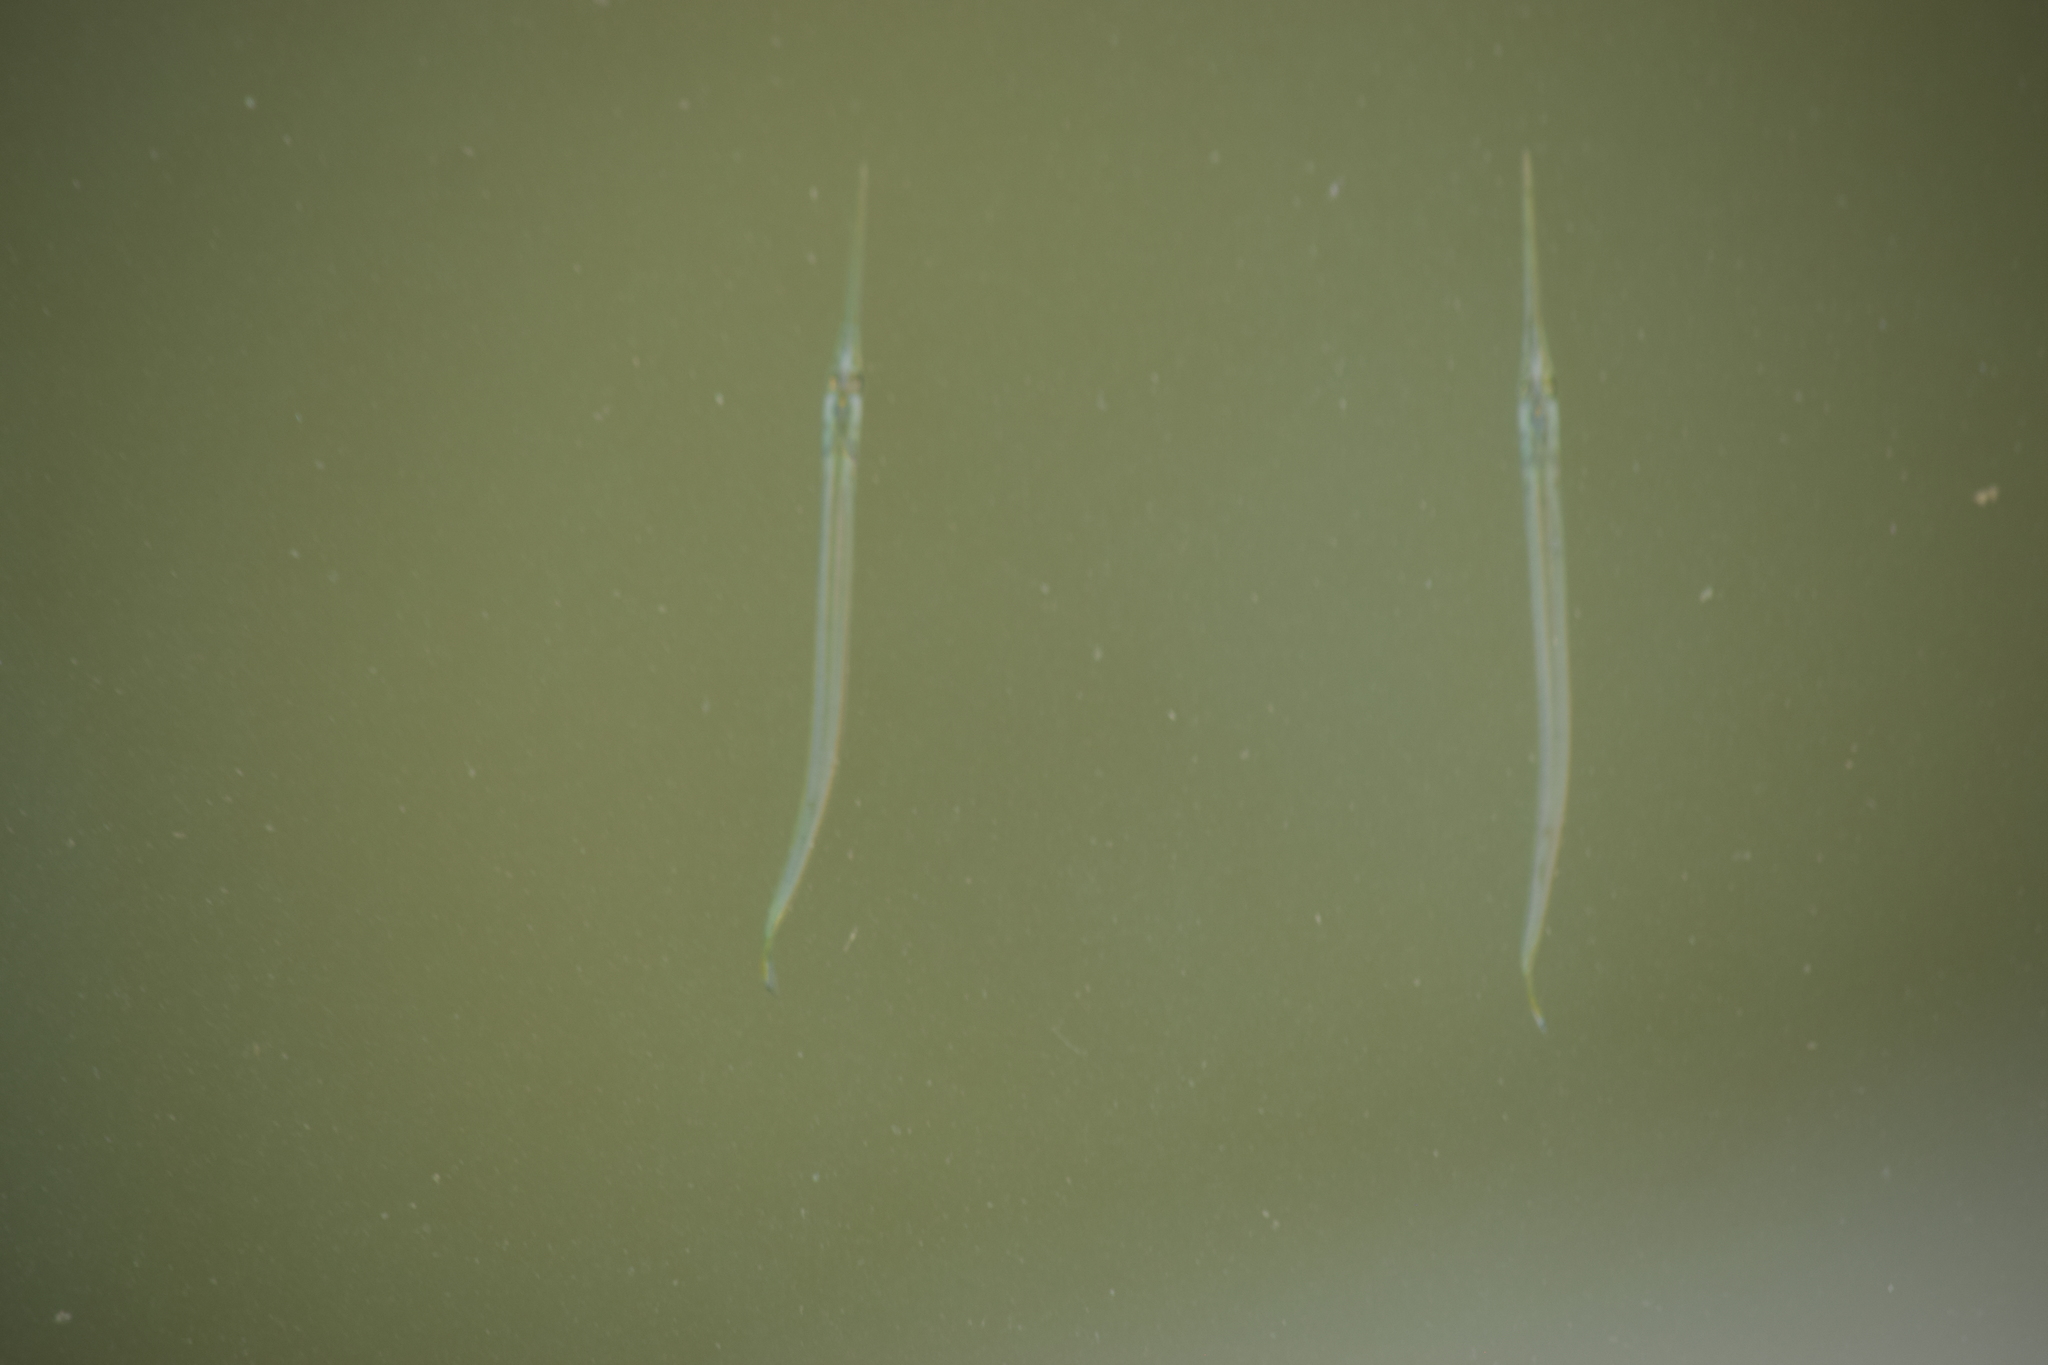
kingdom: Animalia
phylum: Chordata
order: Beloniformes
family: Belonidae
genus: Strongylura
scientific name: Strongylura marina
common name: Atlantic needlefish
